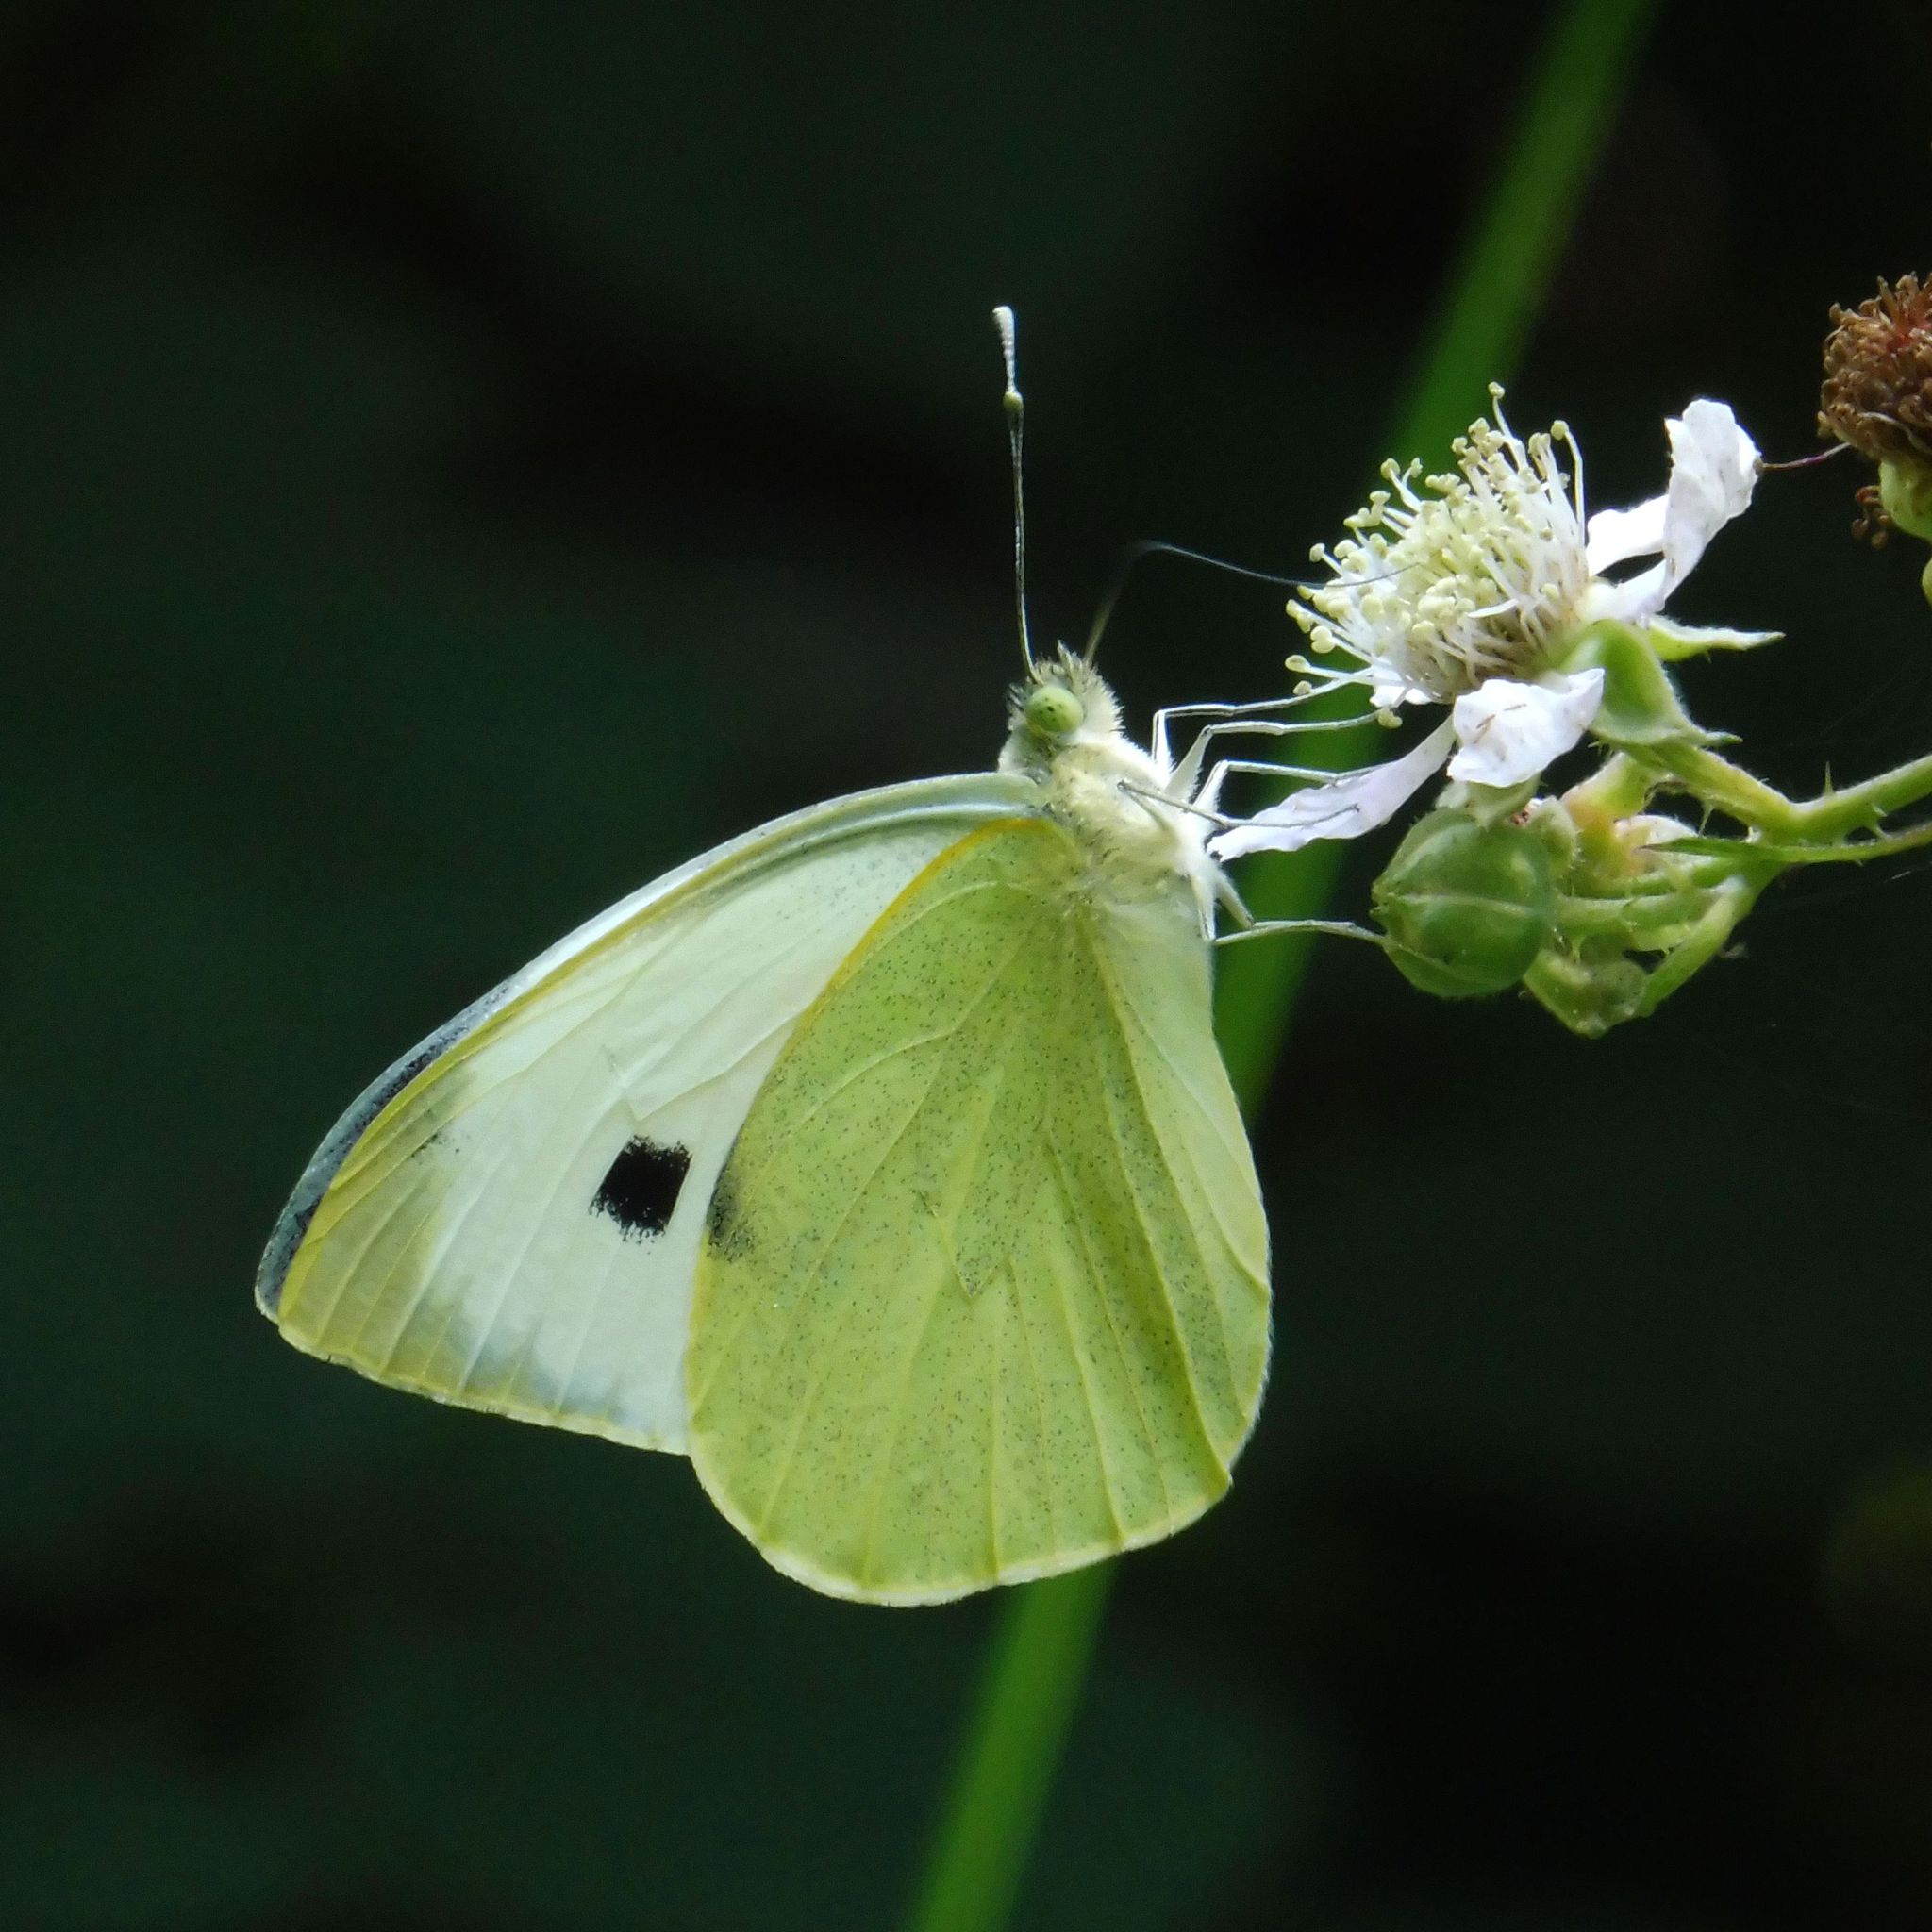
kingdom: Animalia
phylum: Arthropoda
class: Insecta
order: Lepidoptera
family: Pieridae
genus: Pieris
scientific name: Pieris brassicae
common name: Large white
